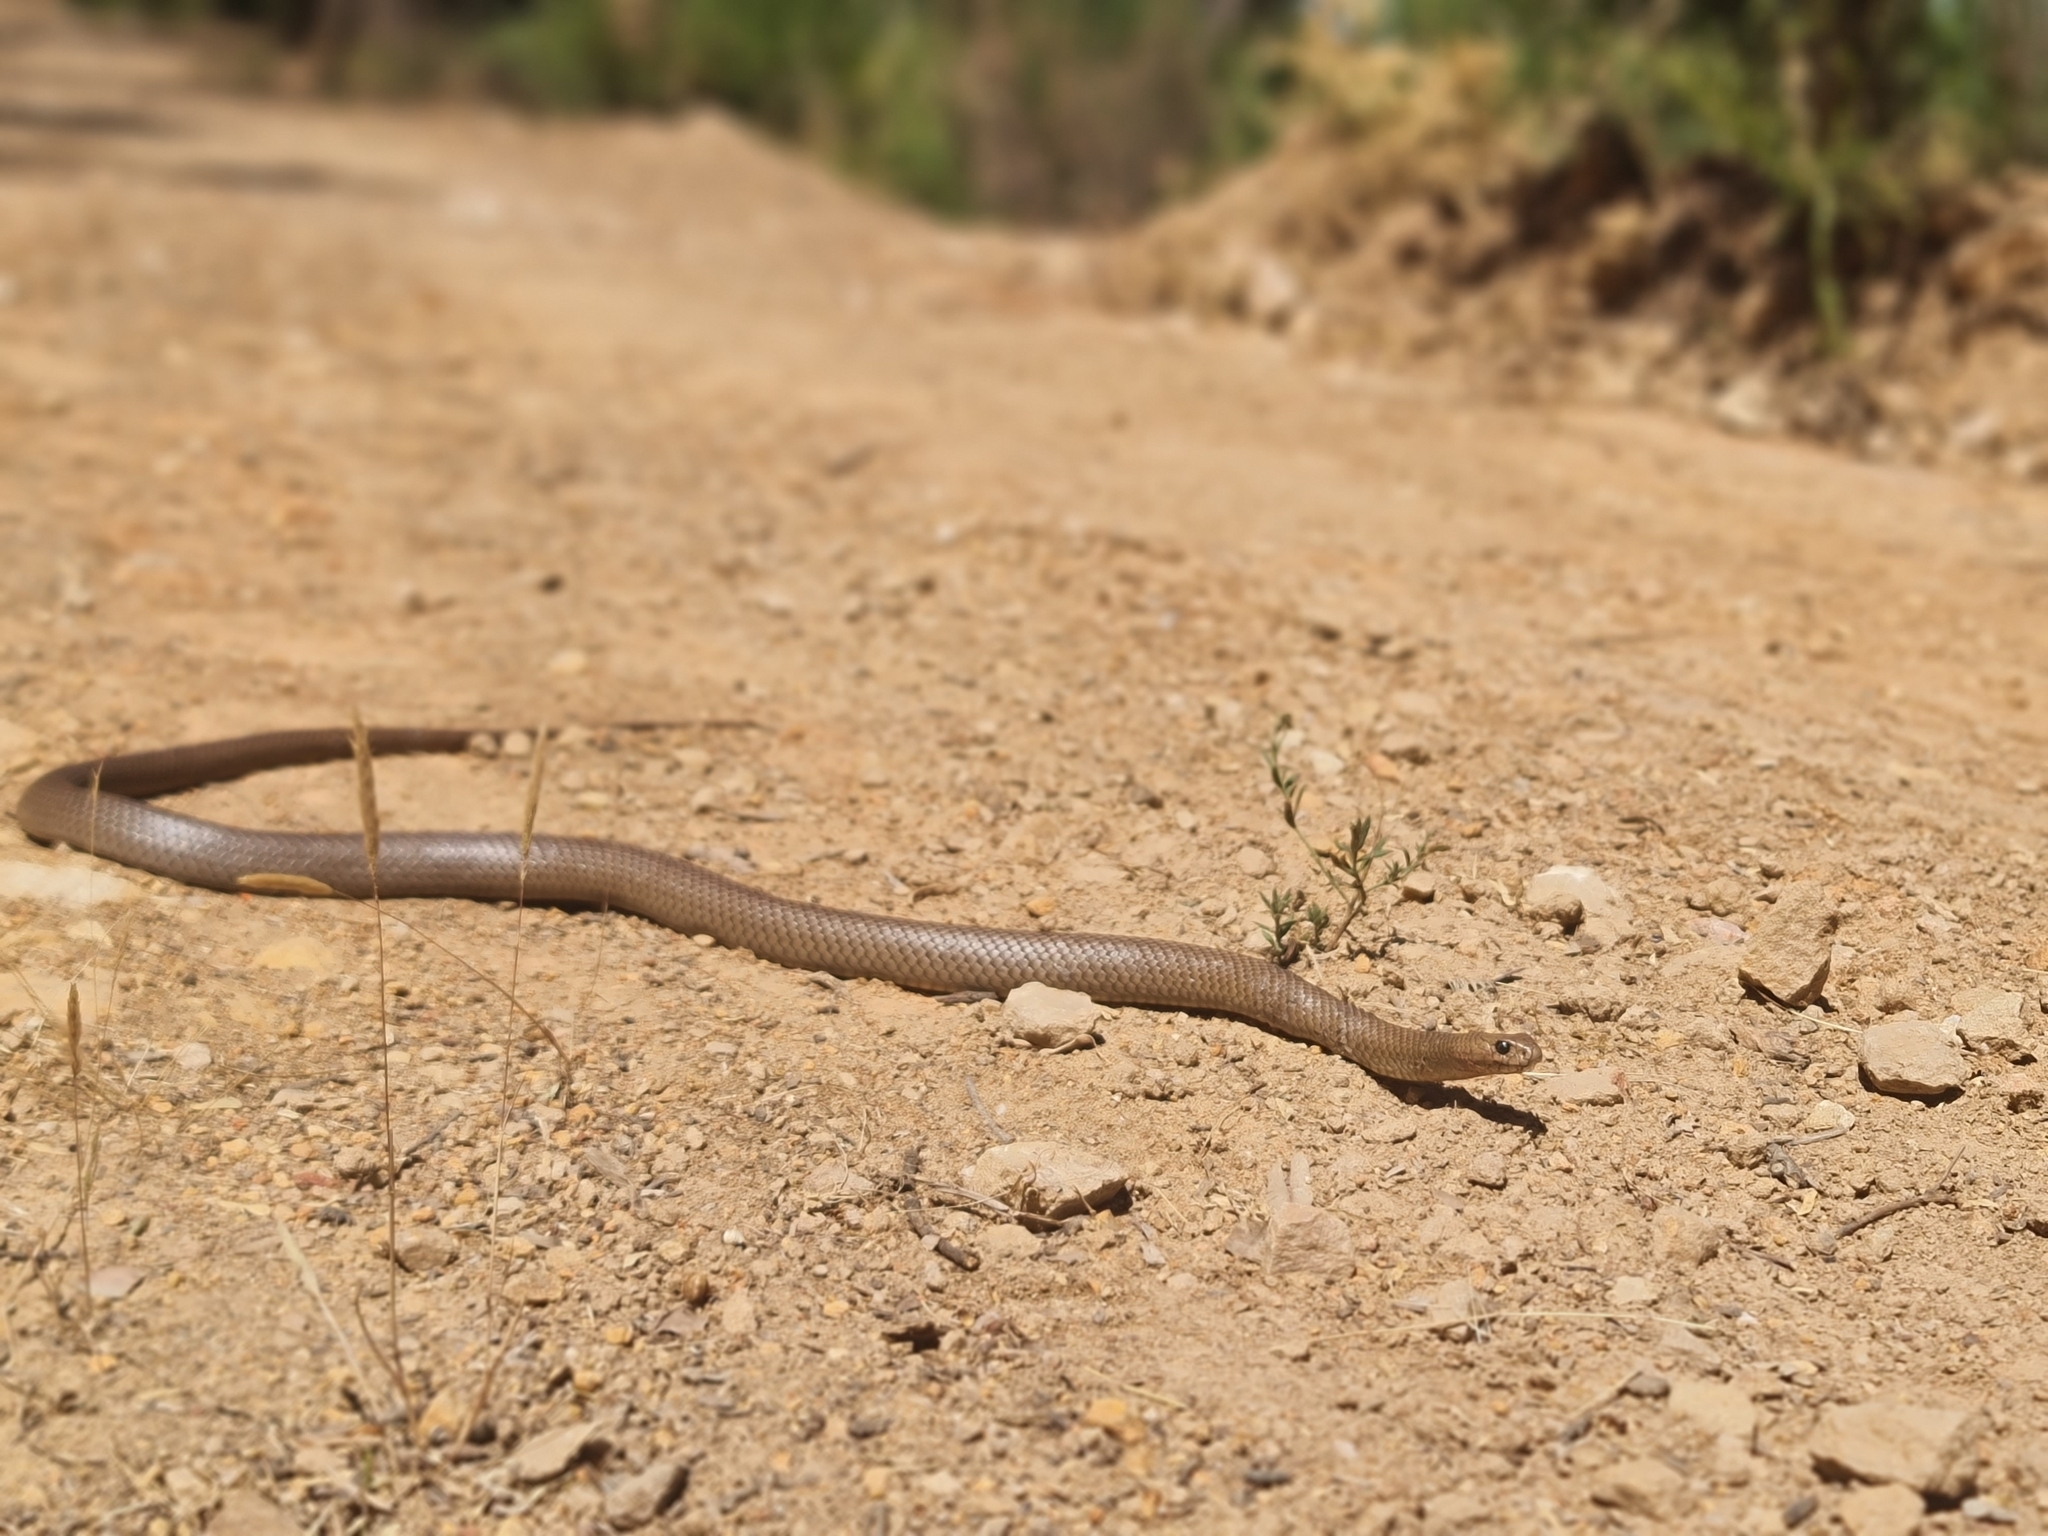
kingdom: Animalia
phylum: Chordata
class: Squamata
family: Elapidae
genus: Pseudonaja
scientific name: Pseudonaja textilis
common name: Eastern brown snake
